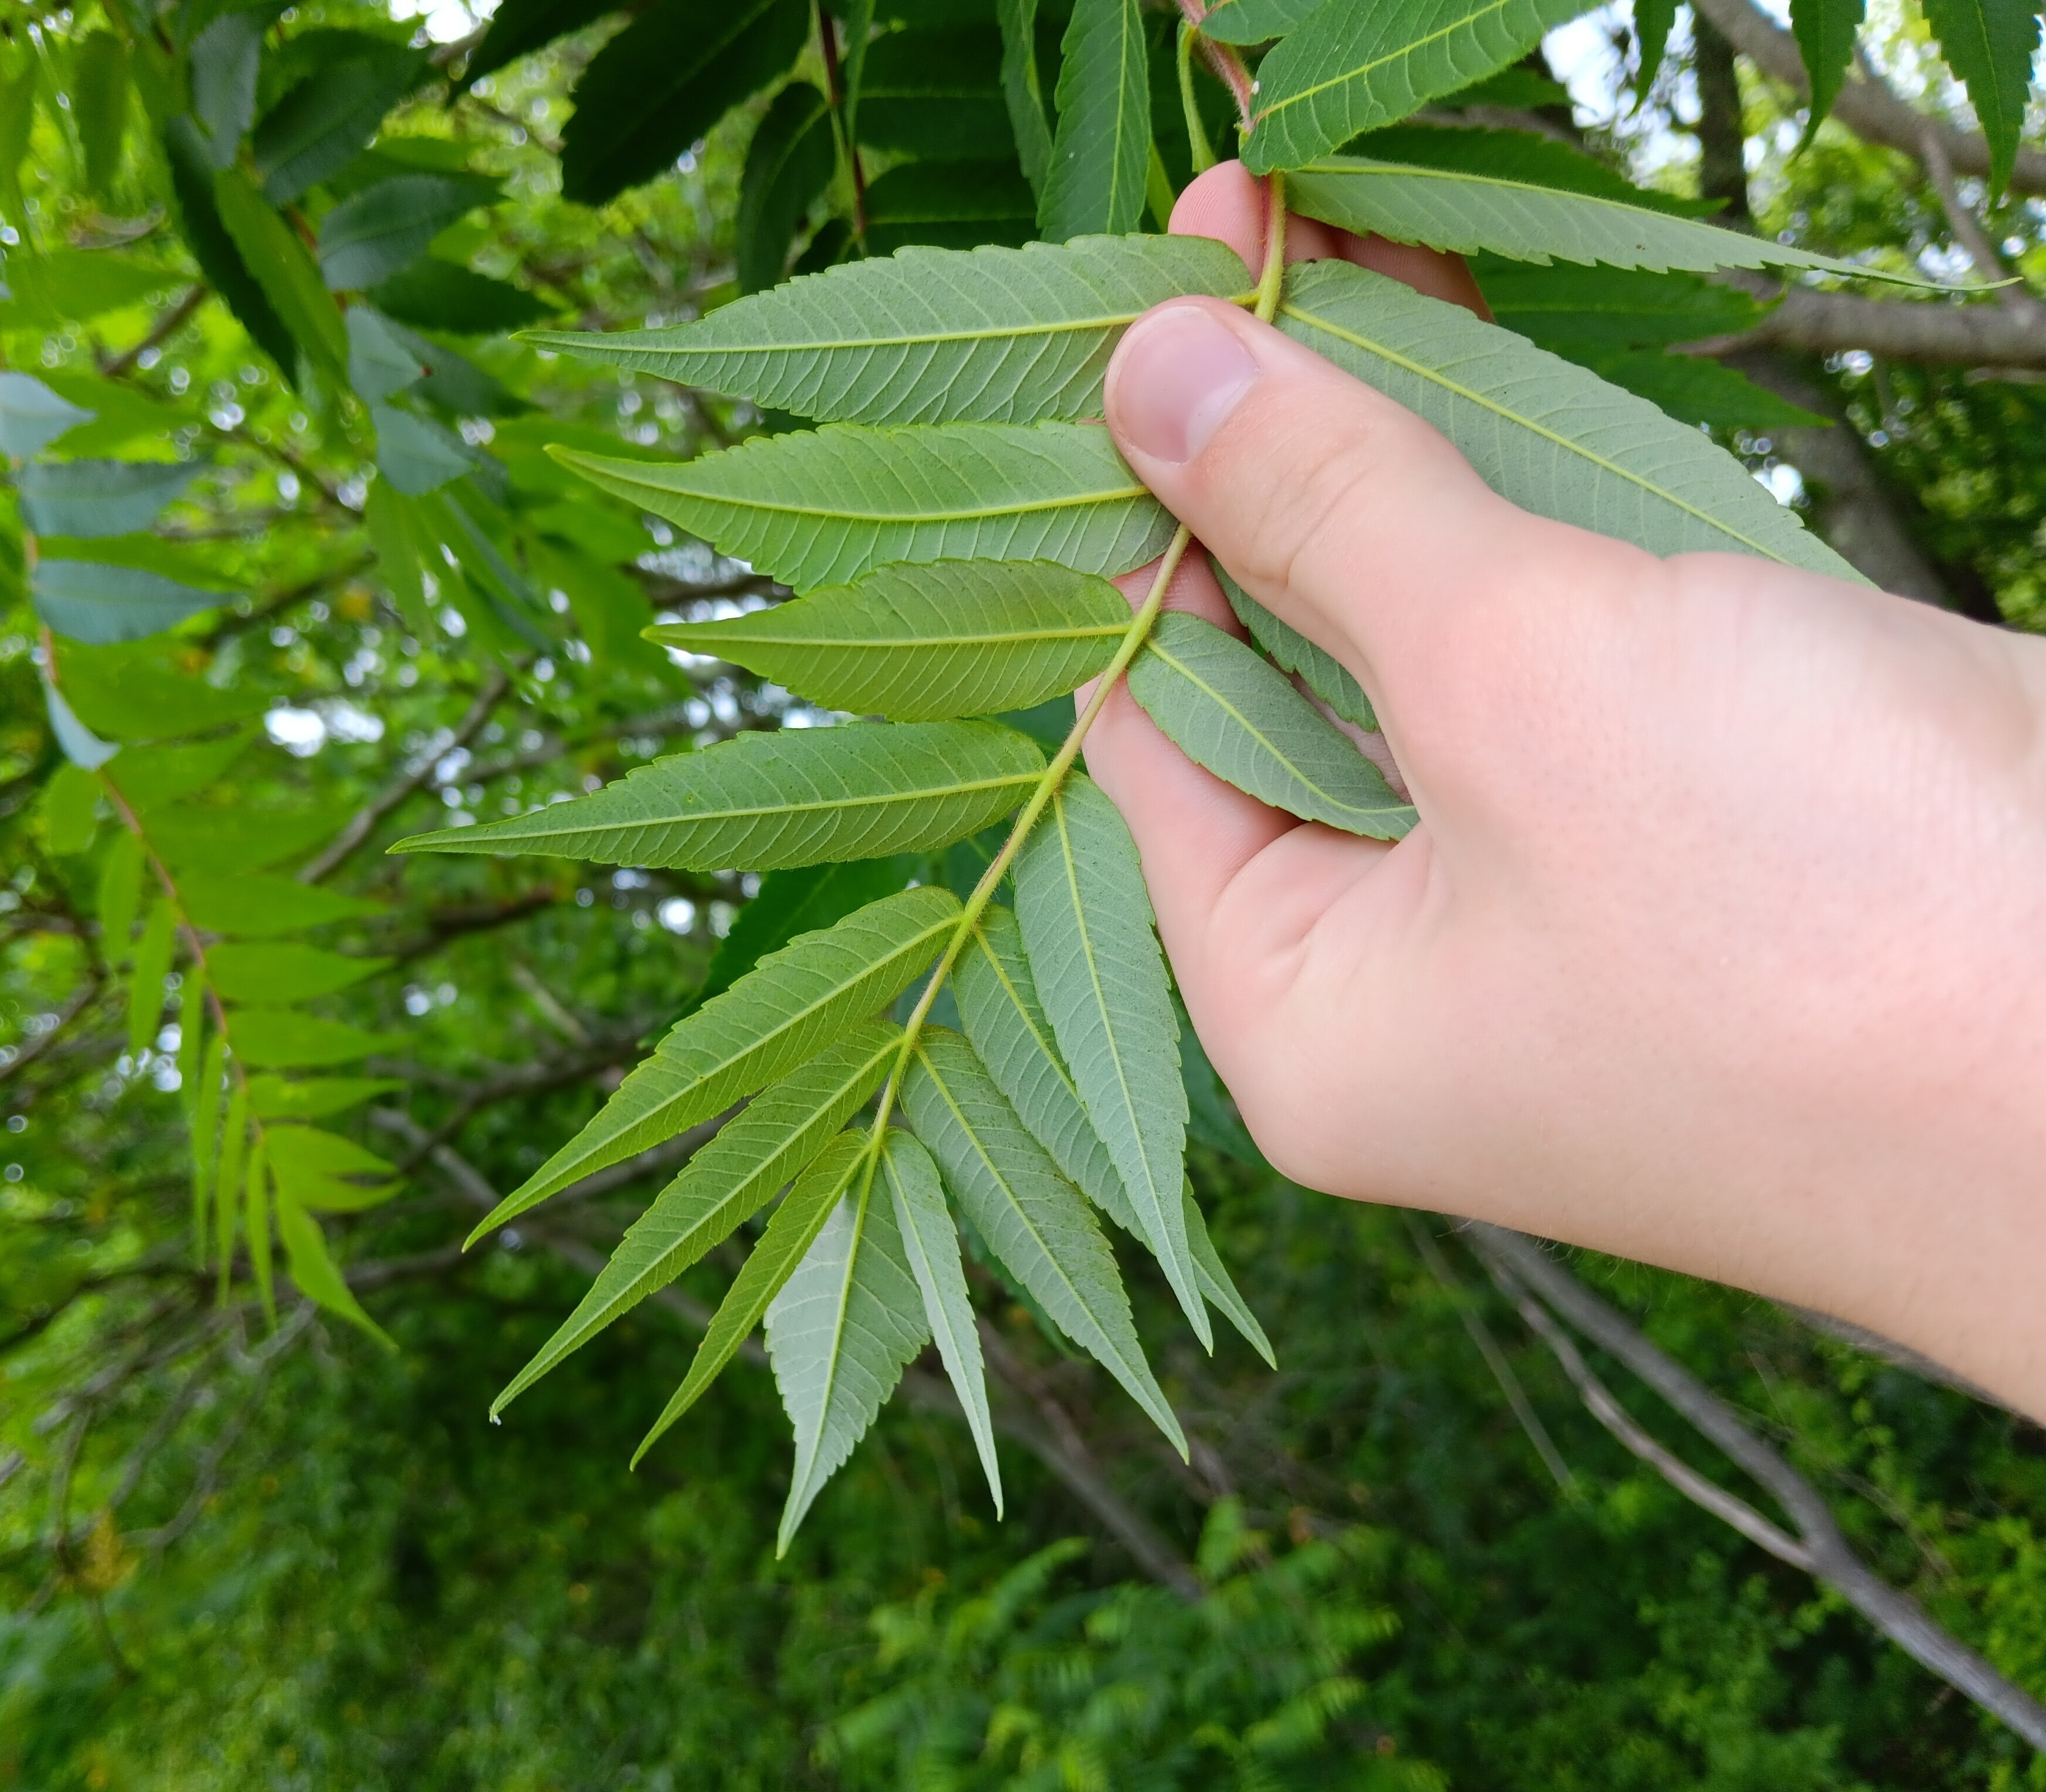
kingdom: Plantae
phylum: Tracheophyta
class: Magnoliopsida
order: Sapindales
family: Anacardiaceae
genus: Rhus
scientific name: Rhus typhina
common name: Staghorn sumac
